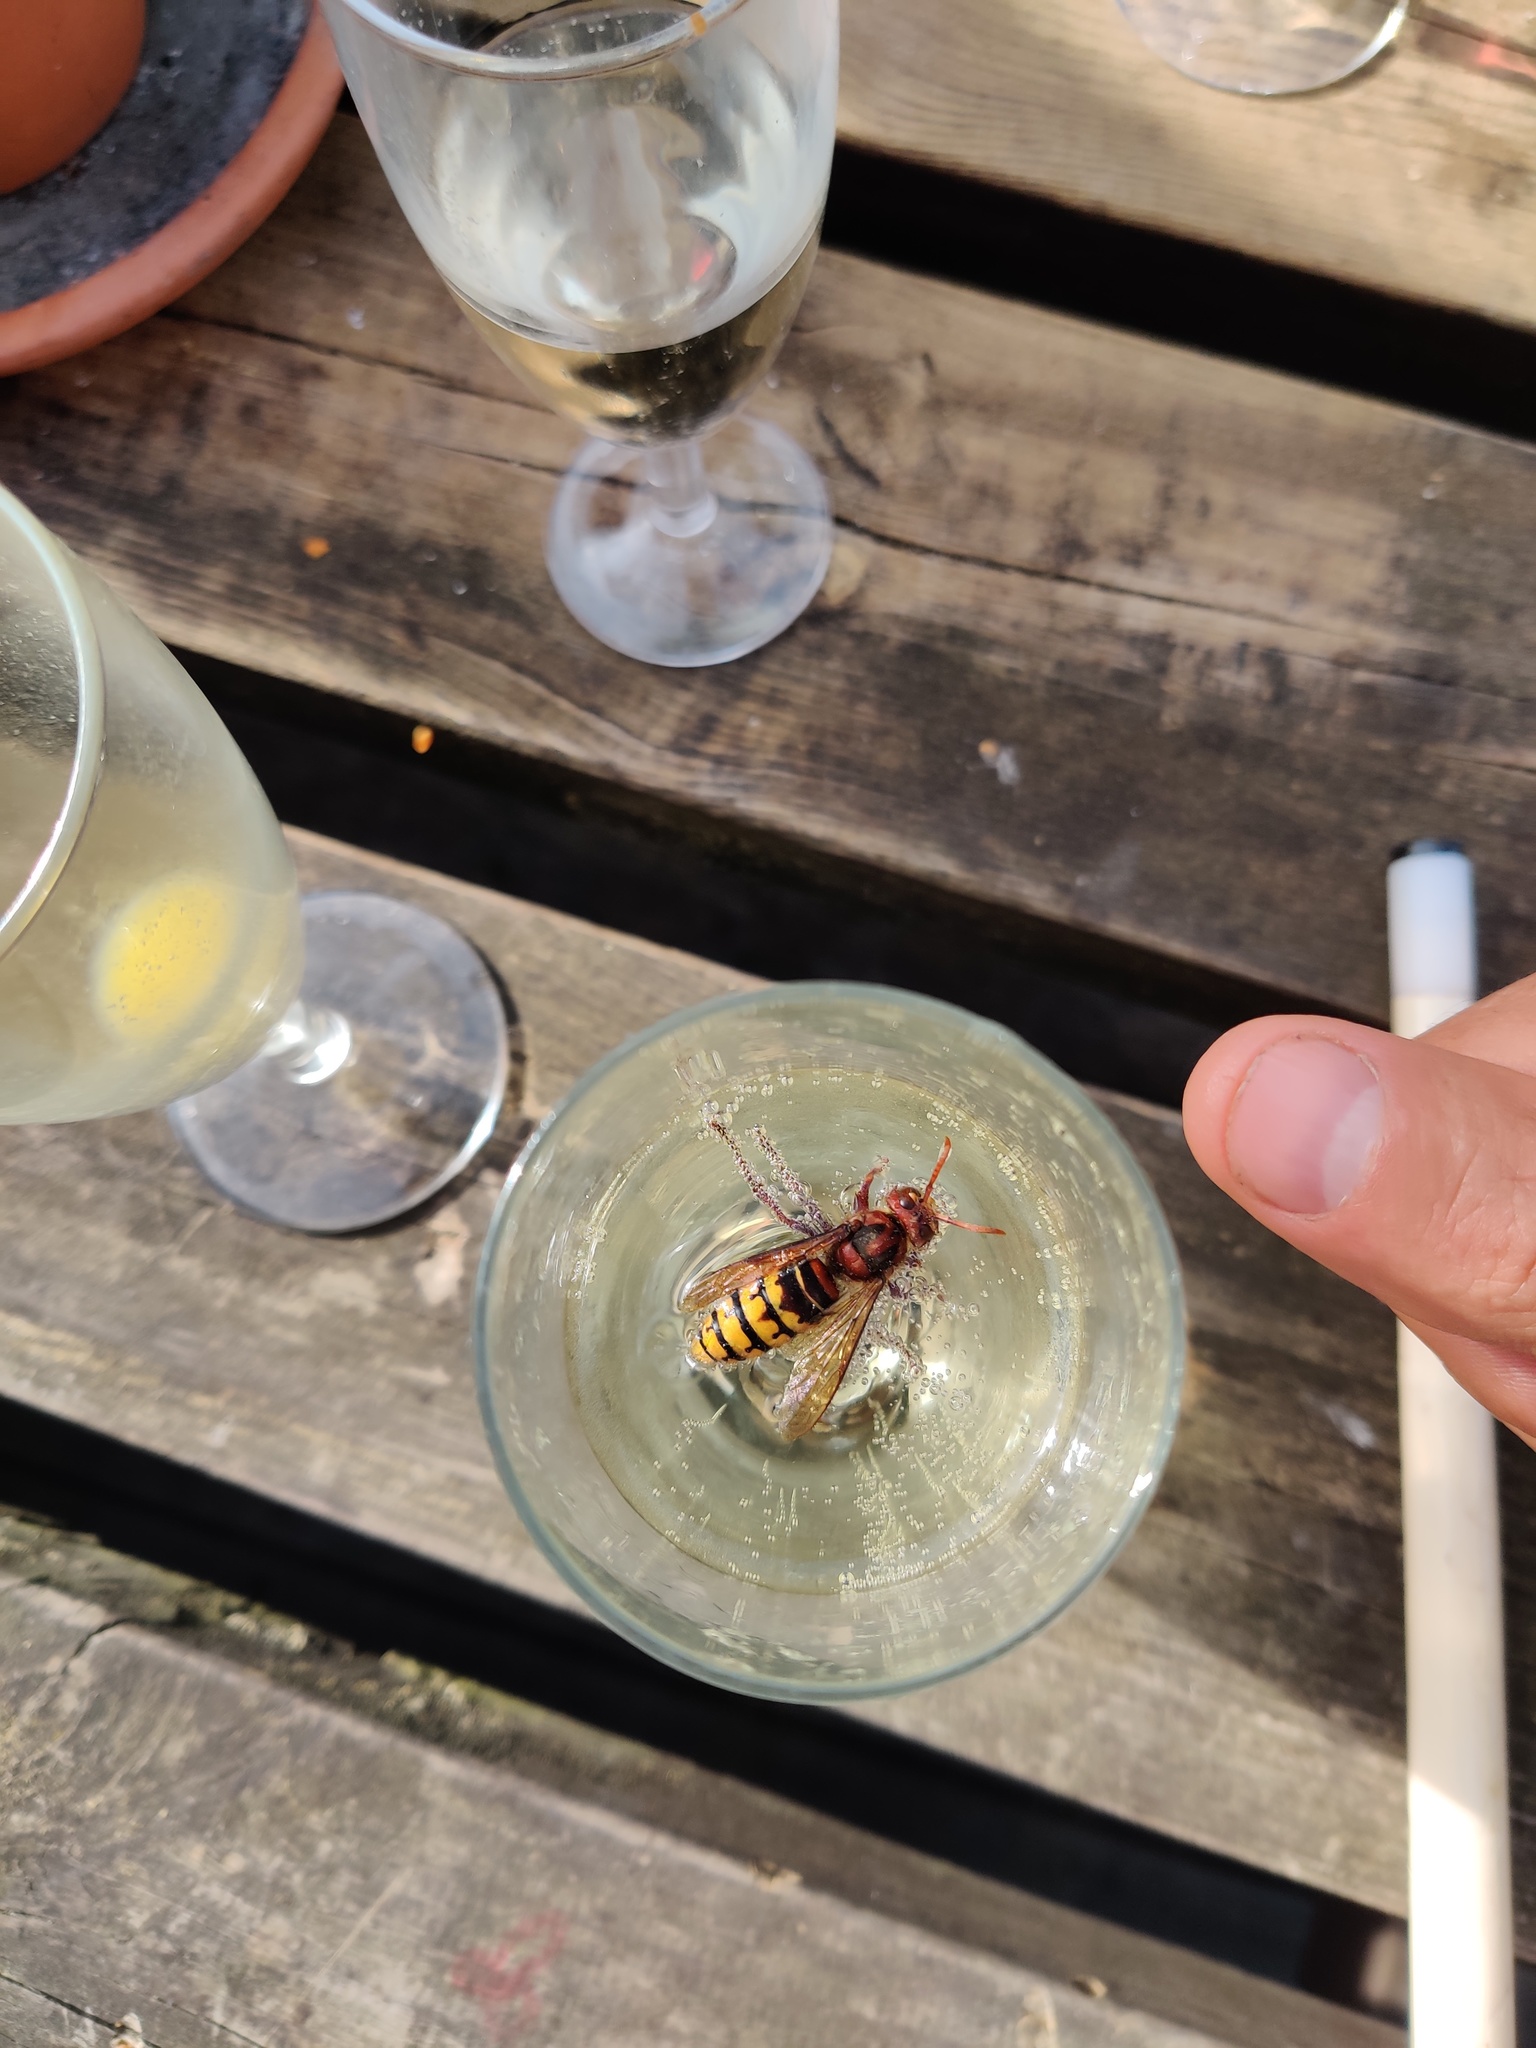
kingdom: Animalia
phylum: Arthropoda
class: Insecta
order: Hymenoptera
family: Vespidae
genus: Vespa
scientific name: Vespa crabro
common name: Hornet
